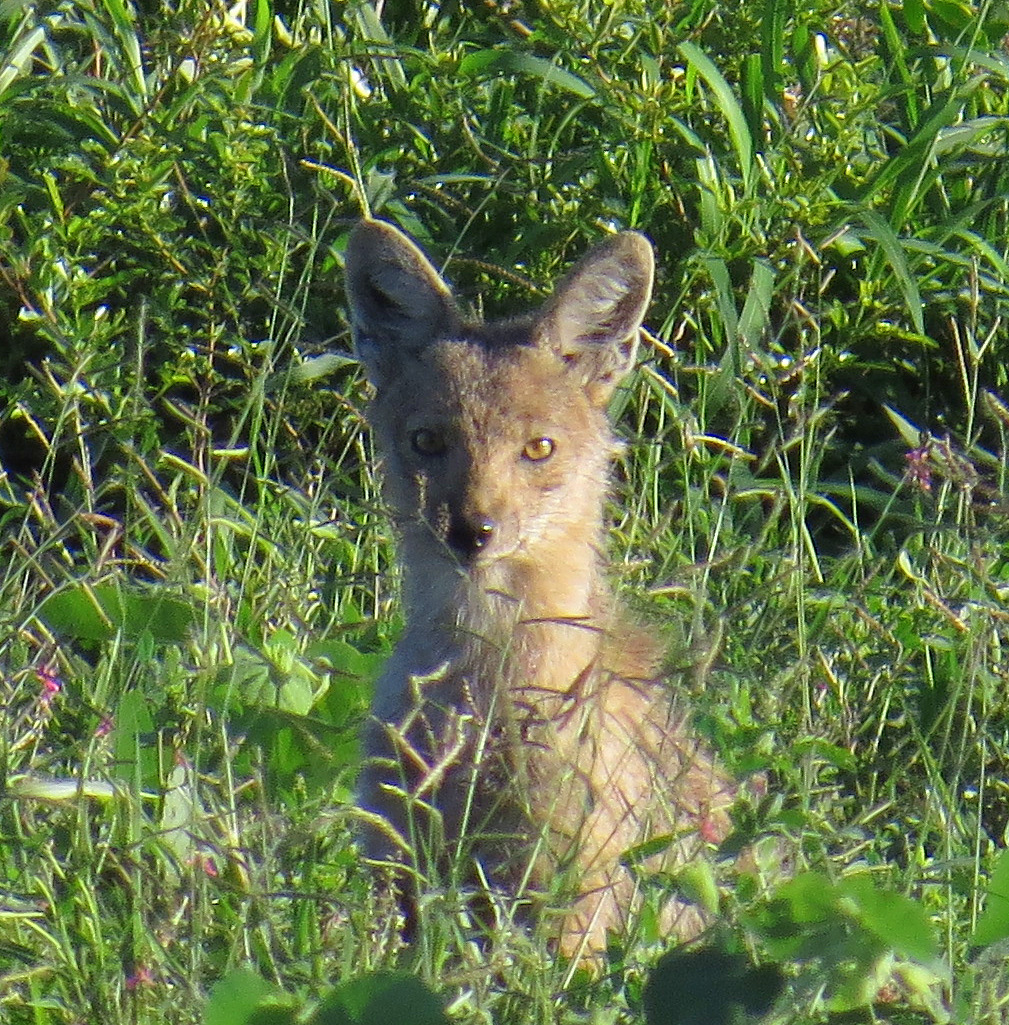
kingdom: Animalia
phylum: Chordata
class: Mammalia
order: Carnivora
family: Canidae
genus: Lupulella
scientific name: Lupulella
